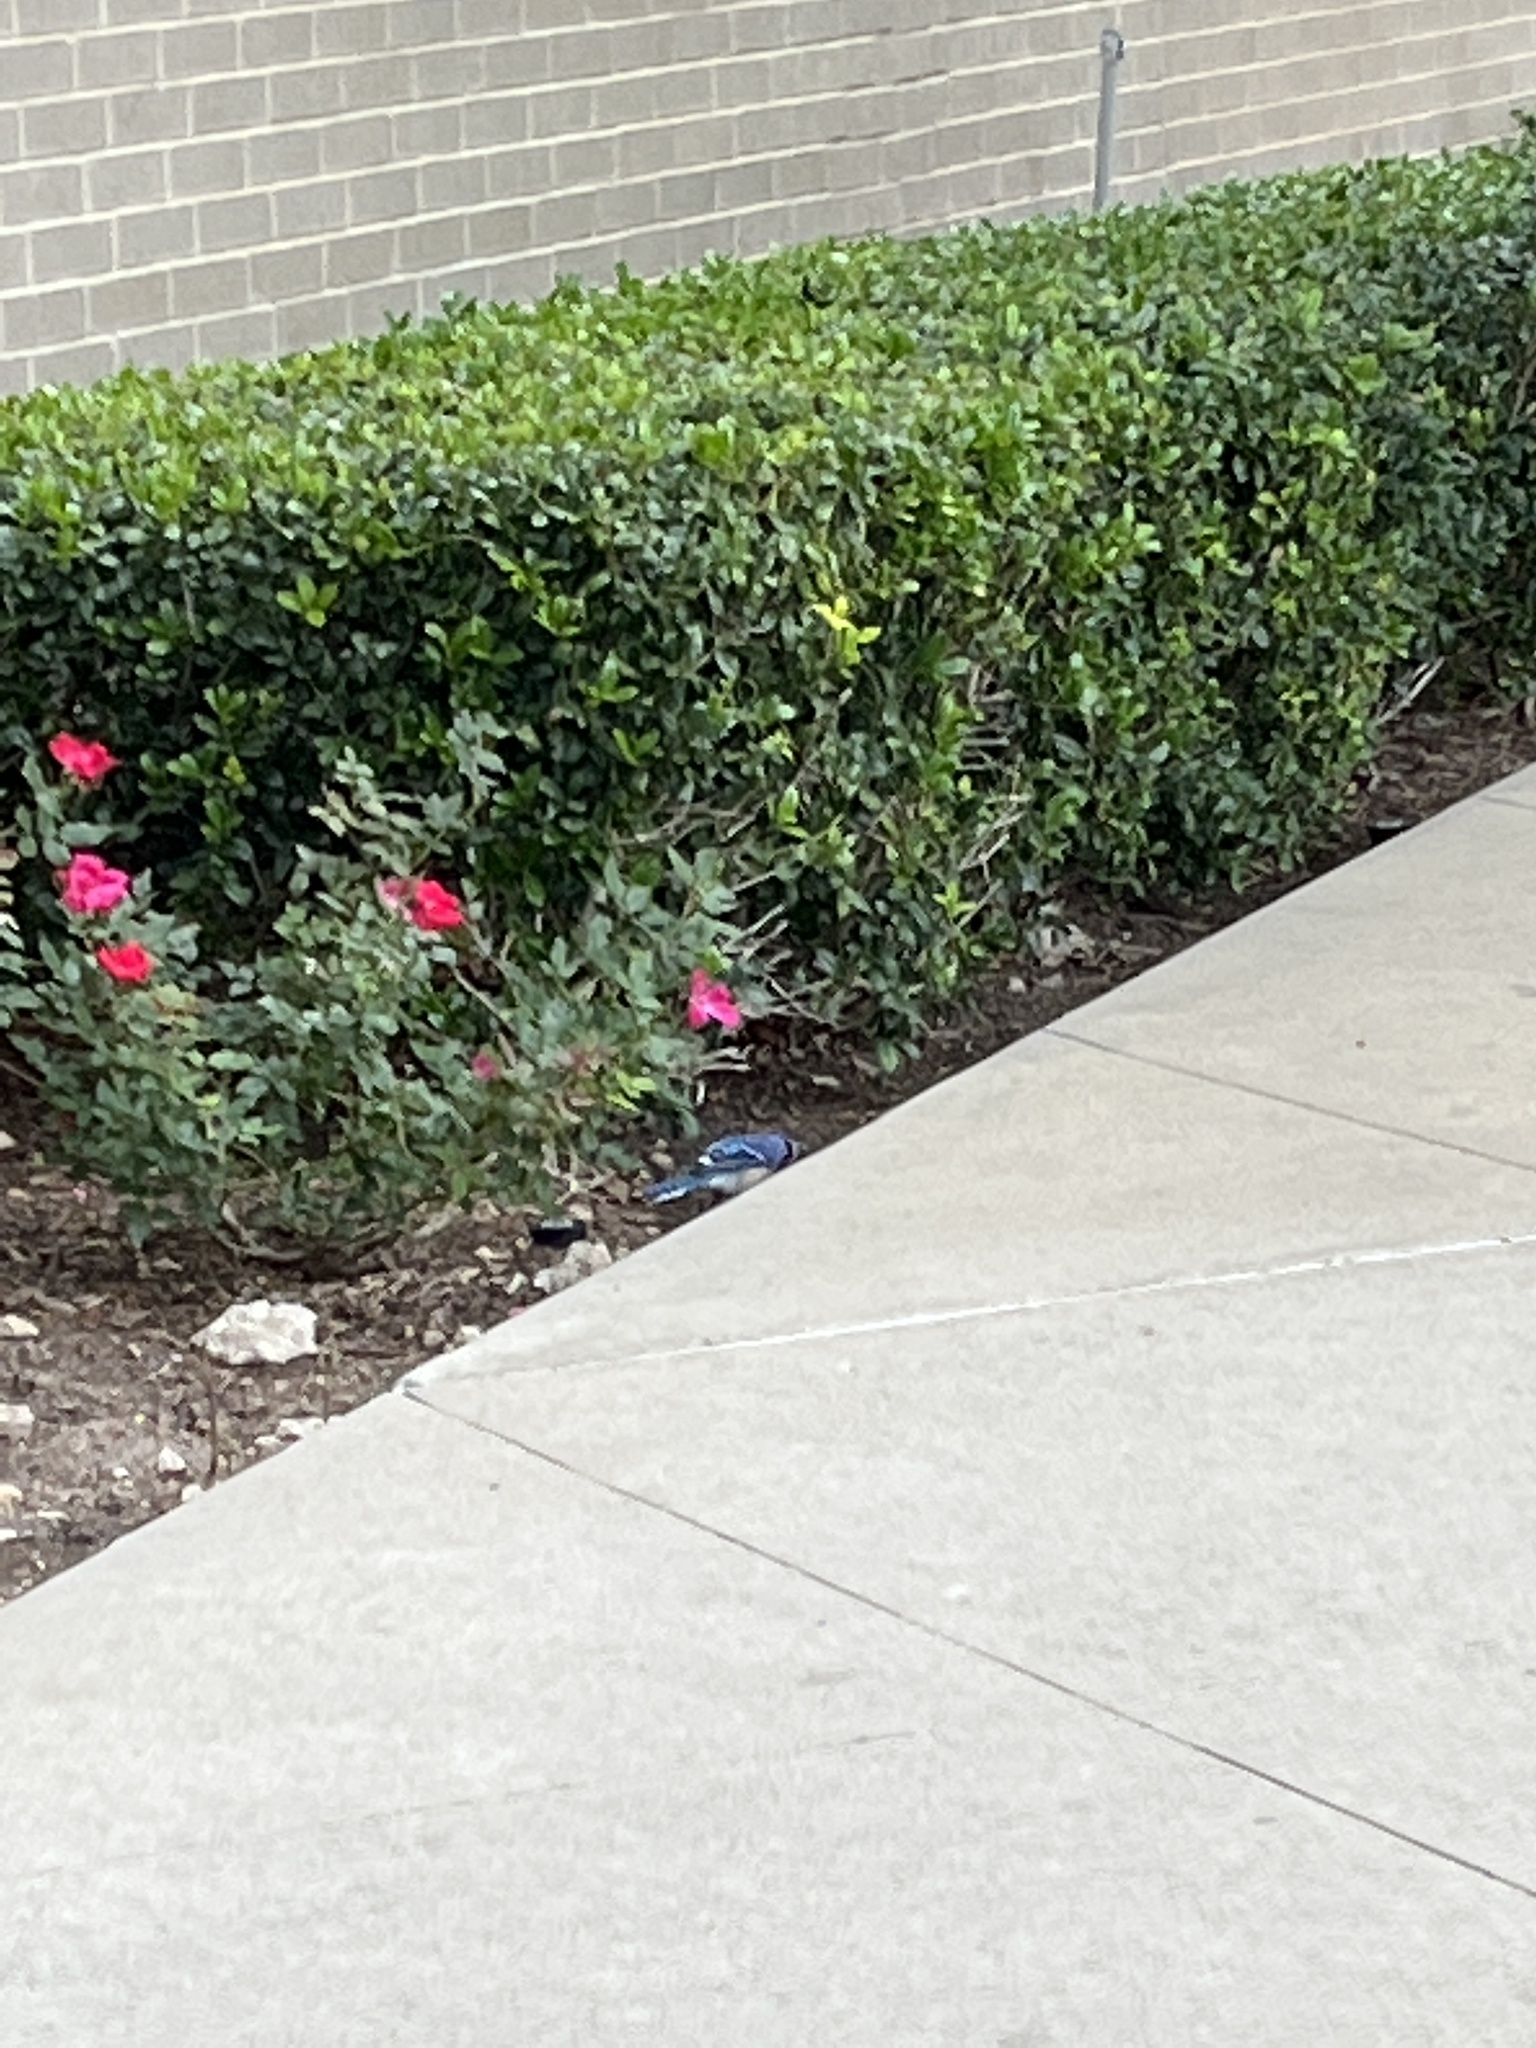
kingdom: Animalia
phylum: Chordata
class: Aves
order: Passeriformes
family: Corvidae
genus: Cyanocitta
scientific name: Cyanocitta cristata
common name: Blue jay
